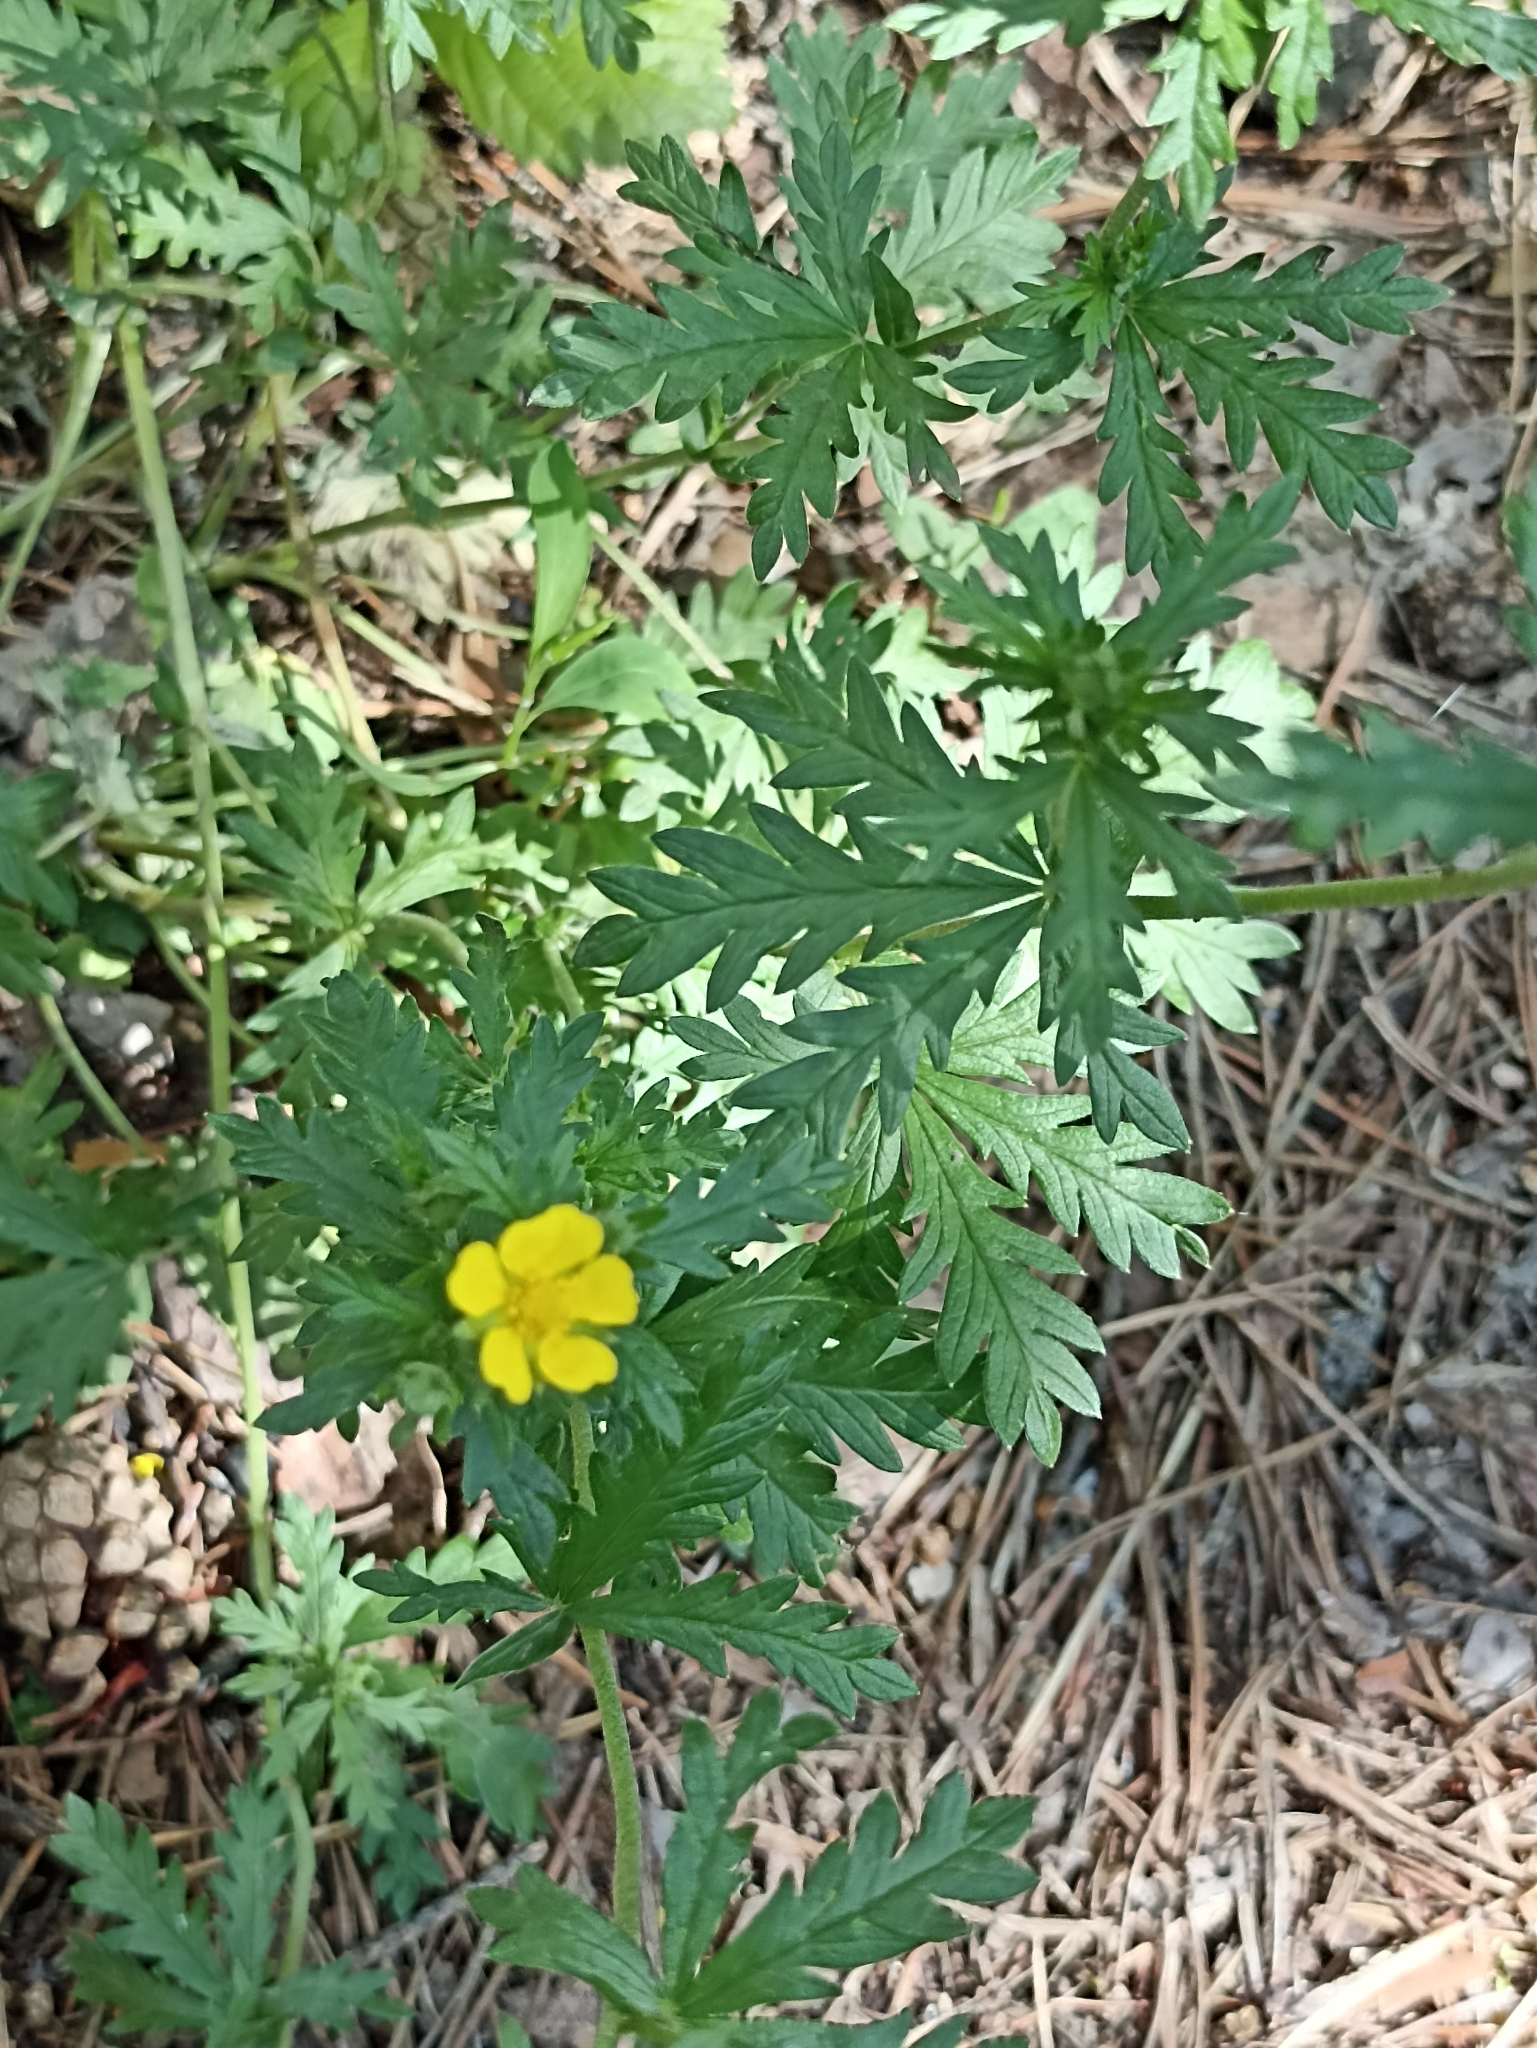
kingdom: Plantae
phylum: Tracheophyta
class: Magnoliopsida
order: Rosales
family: Rosaceae
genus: Potentilla
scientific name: Potentilla argentea
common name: Hoary cinquefoil
